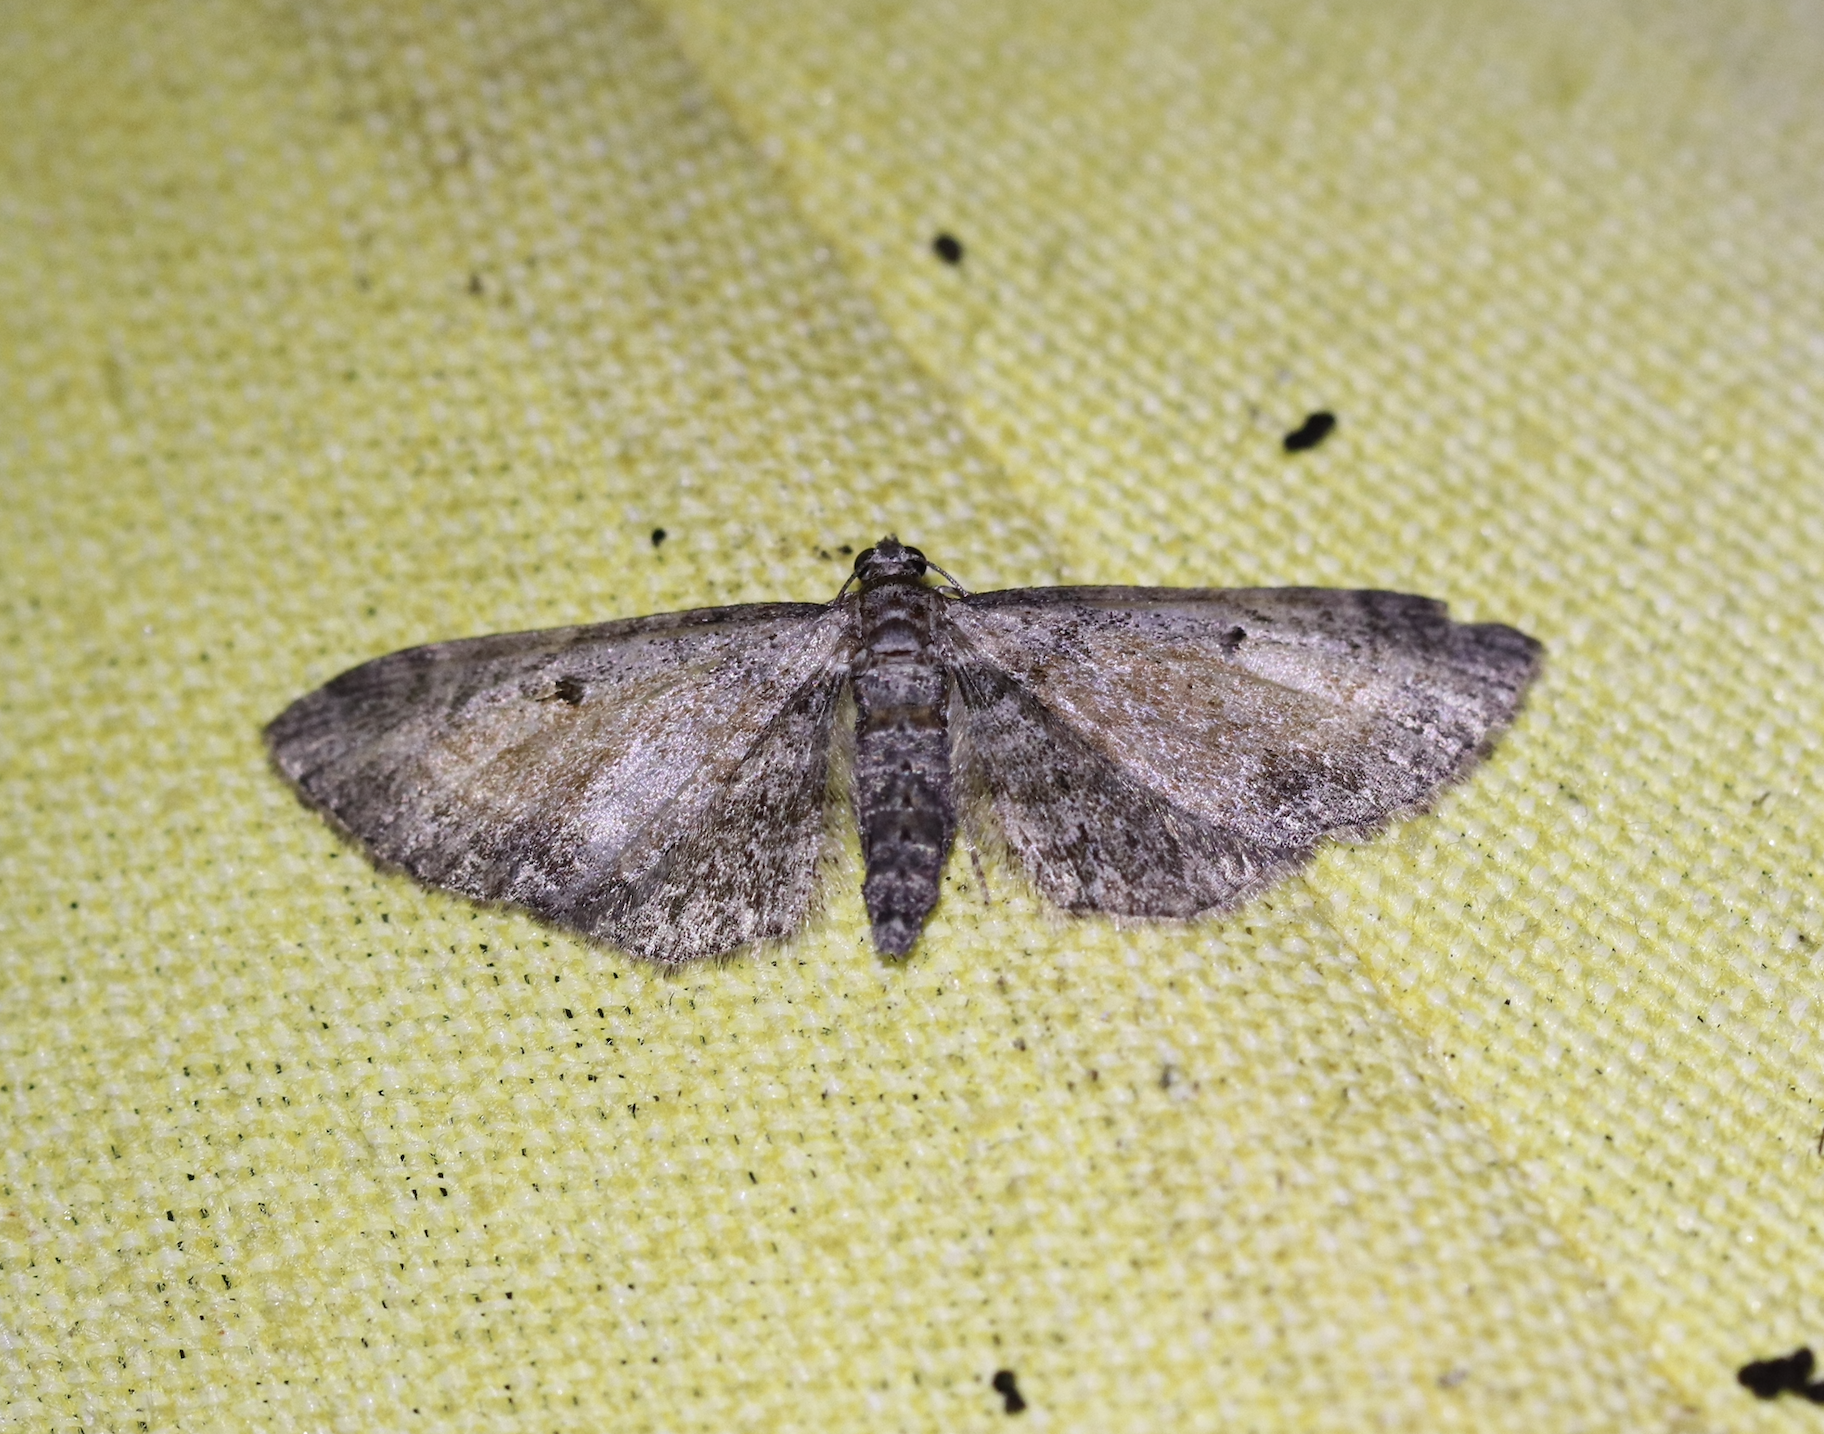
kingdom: Animalia
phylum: Arthropoda
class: Insecta
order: Lepidoptera
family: Geometridae
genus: Eupithecia
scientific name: Eupithecia icterata
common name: Tawny speckled pug
